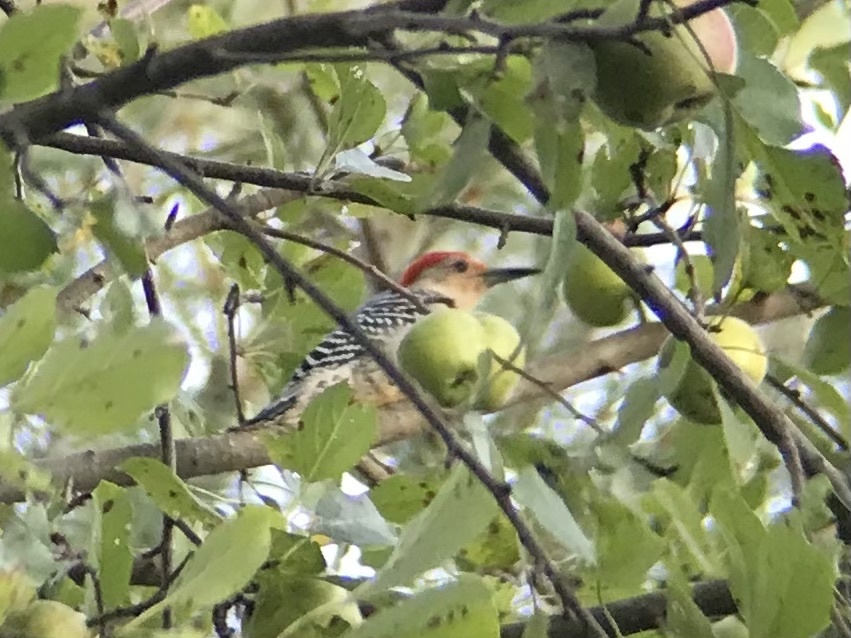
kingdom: Animalia
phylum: Chordata
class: Aves
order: Piciformes
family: Picidae
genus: Melanerpes
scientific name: Melanerpes carolinus
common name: Red-bellied woodpecker
